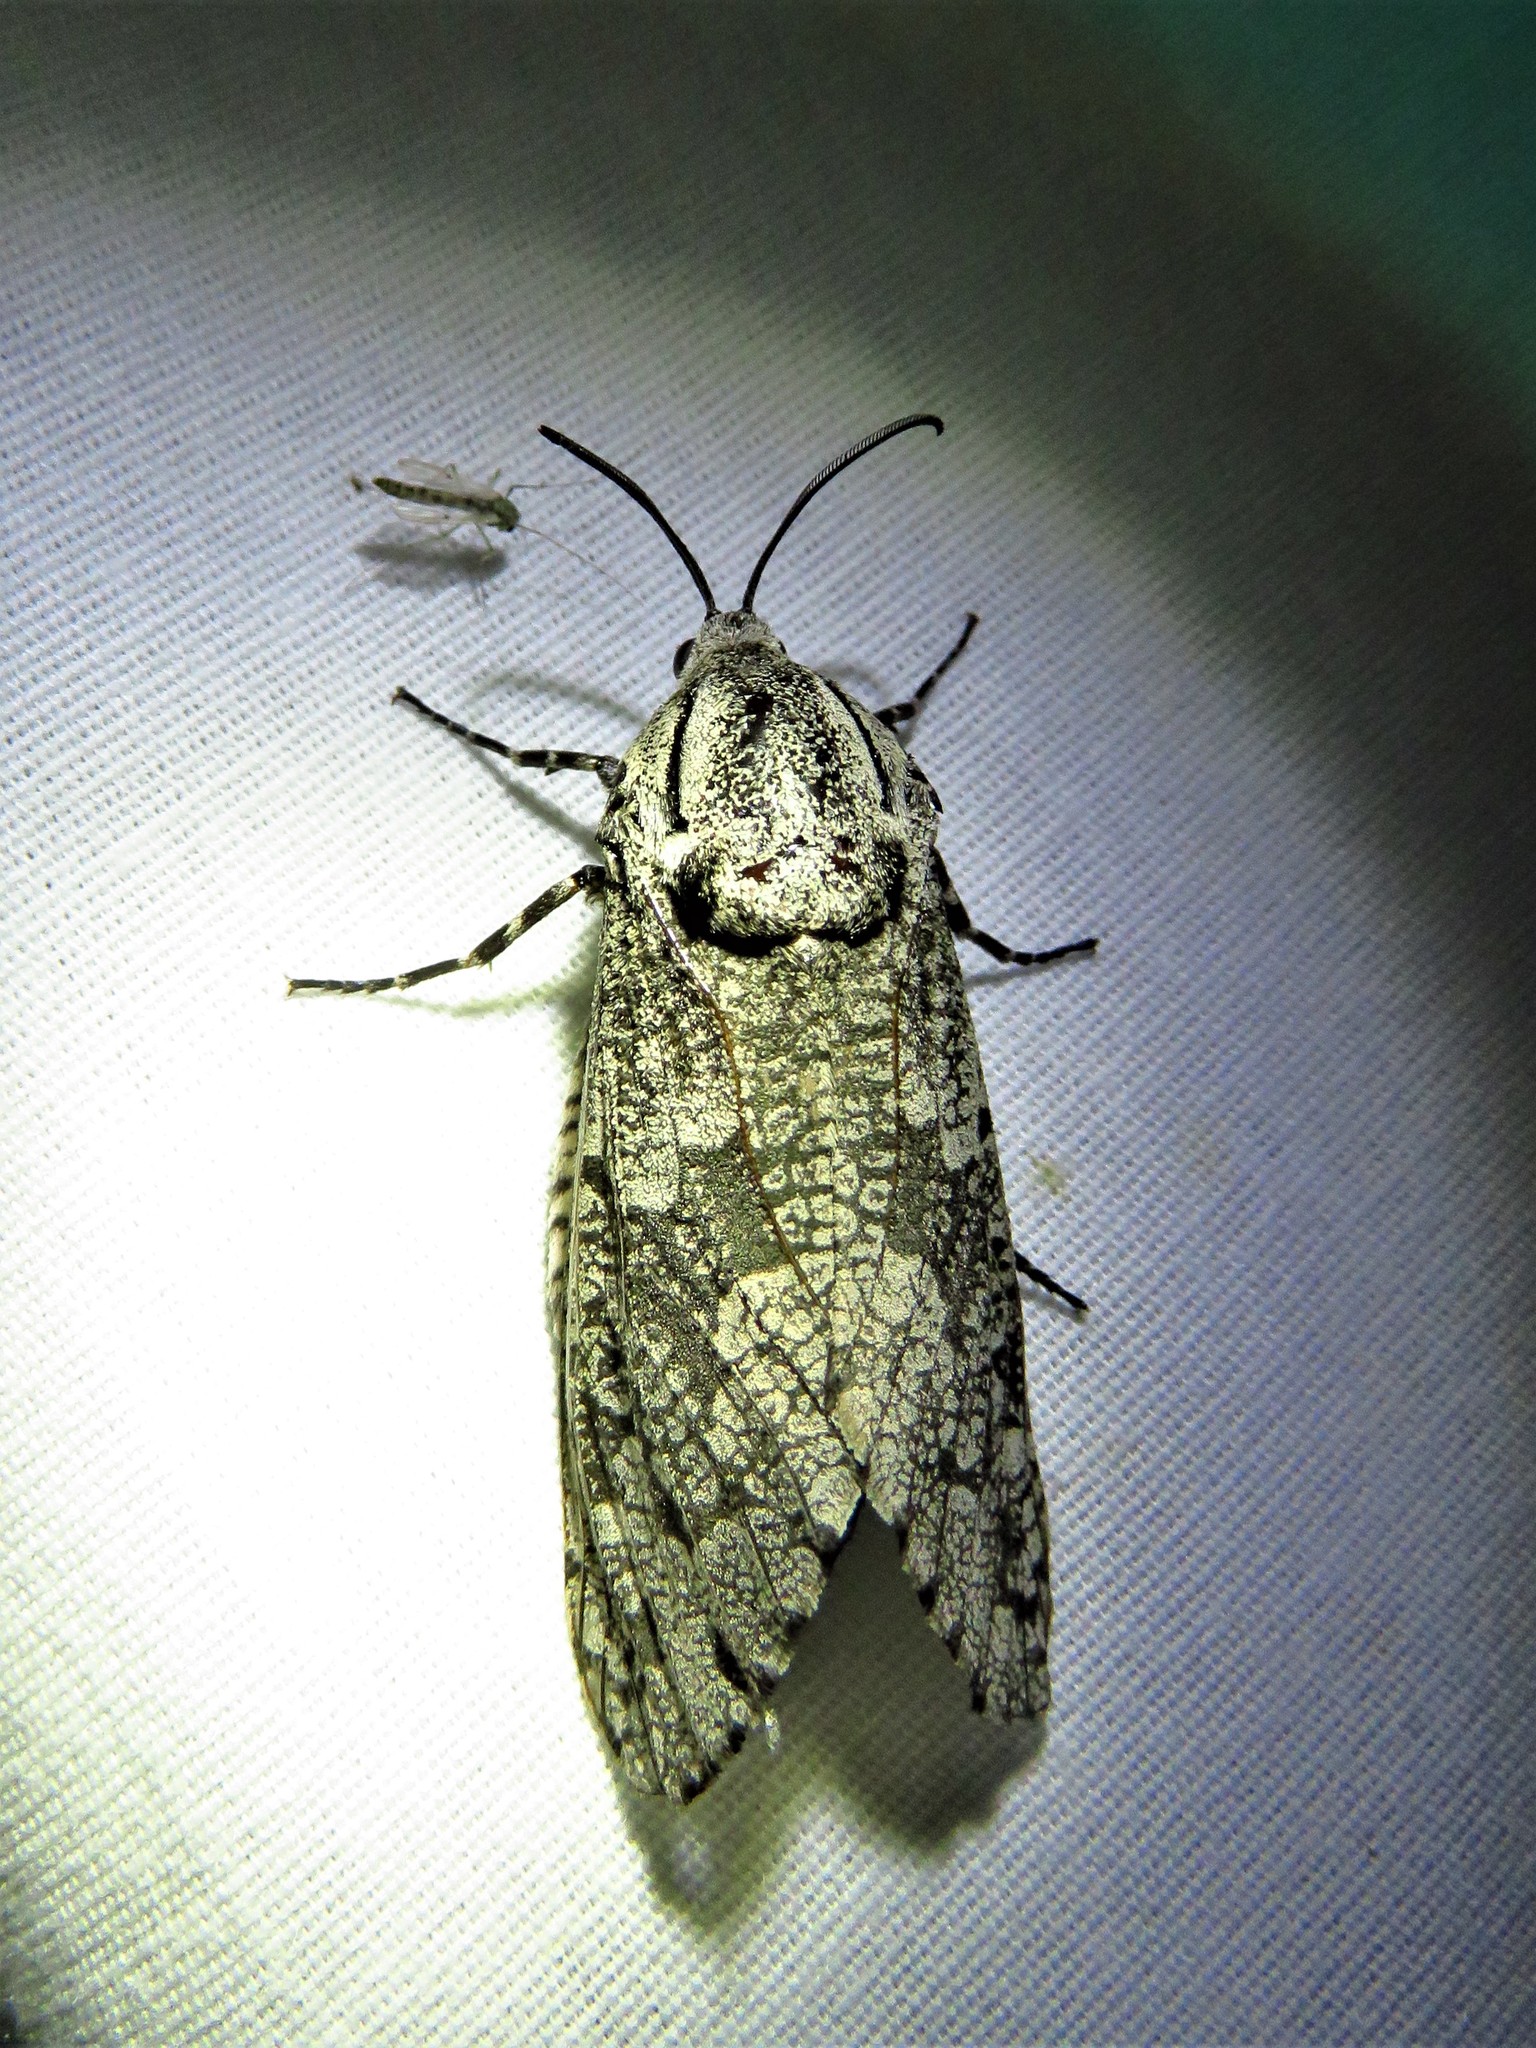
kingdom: Animalia
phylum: Arthropoda
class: Insecta
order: Lepidoptera
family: Cossidae
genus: Prionoxystus
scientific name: Prionoxystus robiniae
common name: Carpenterworm
